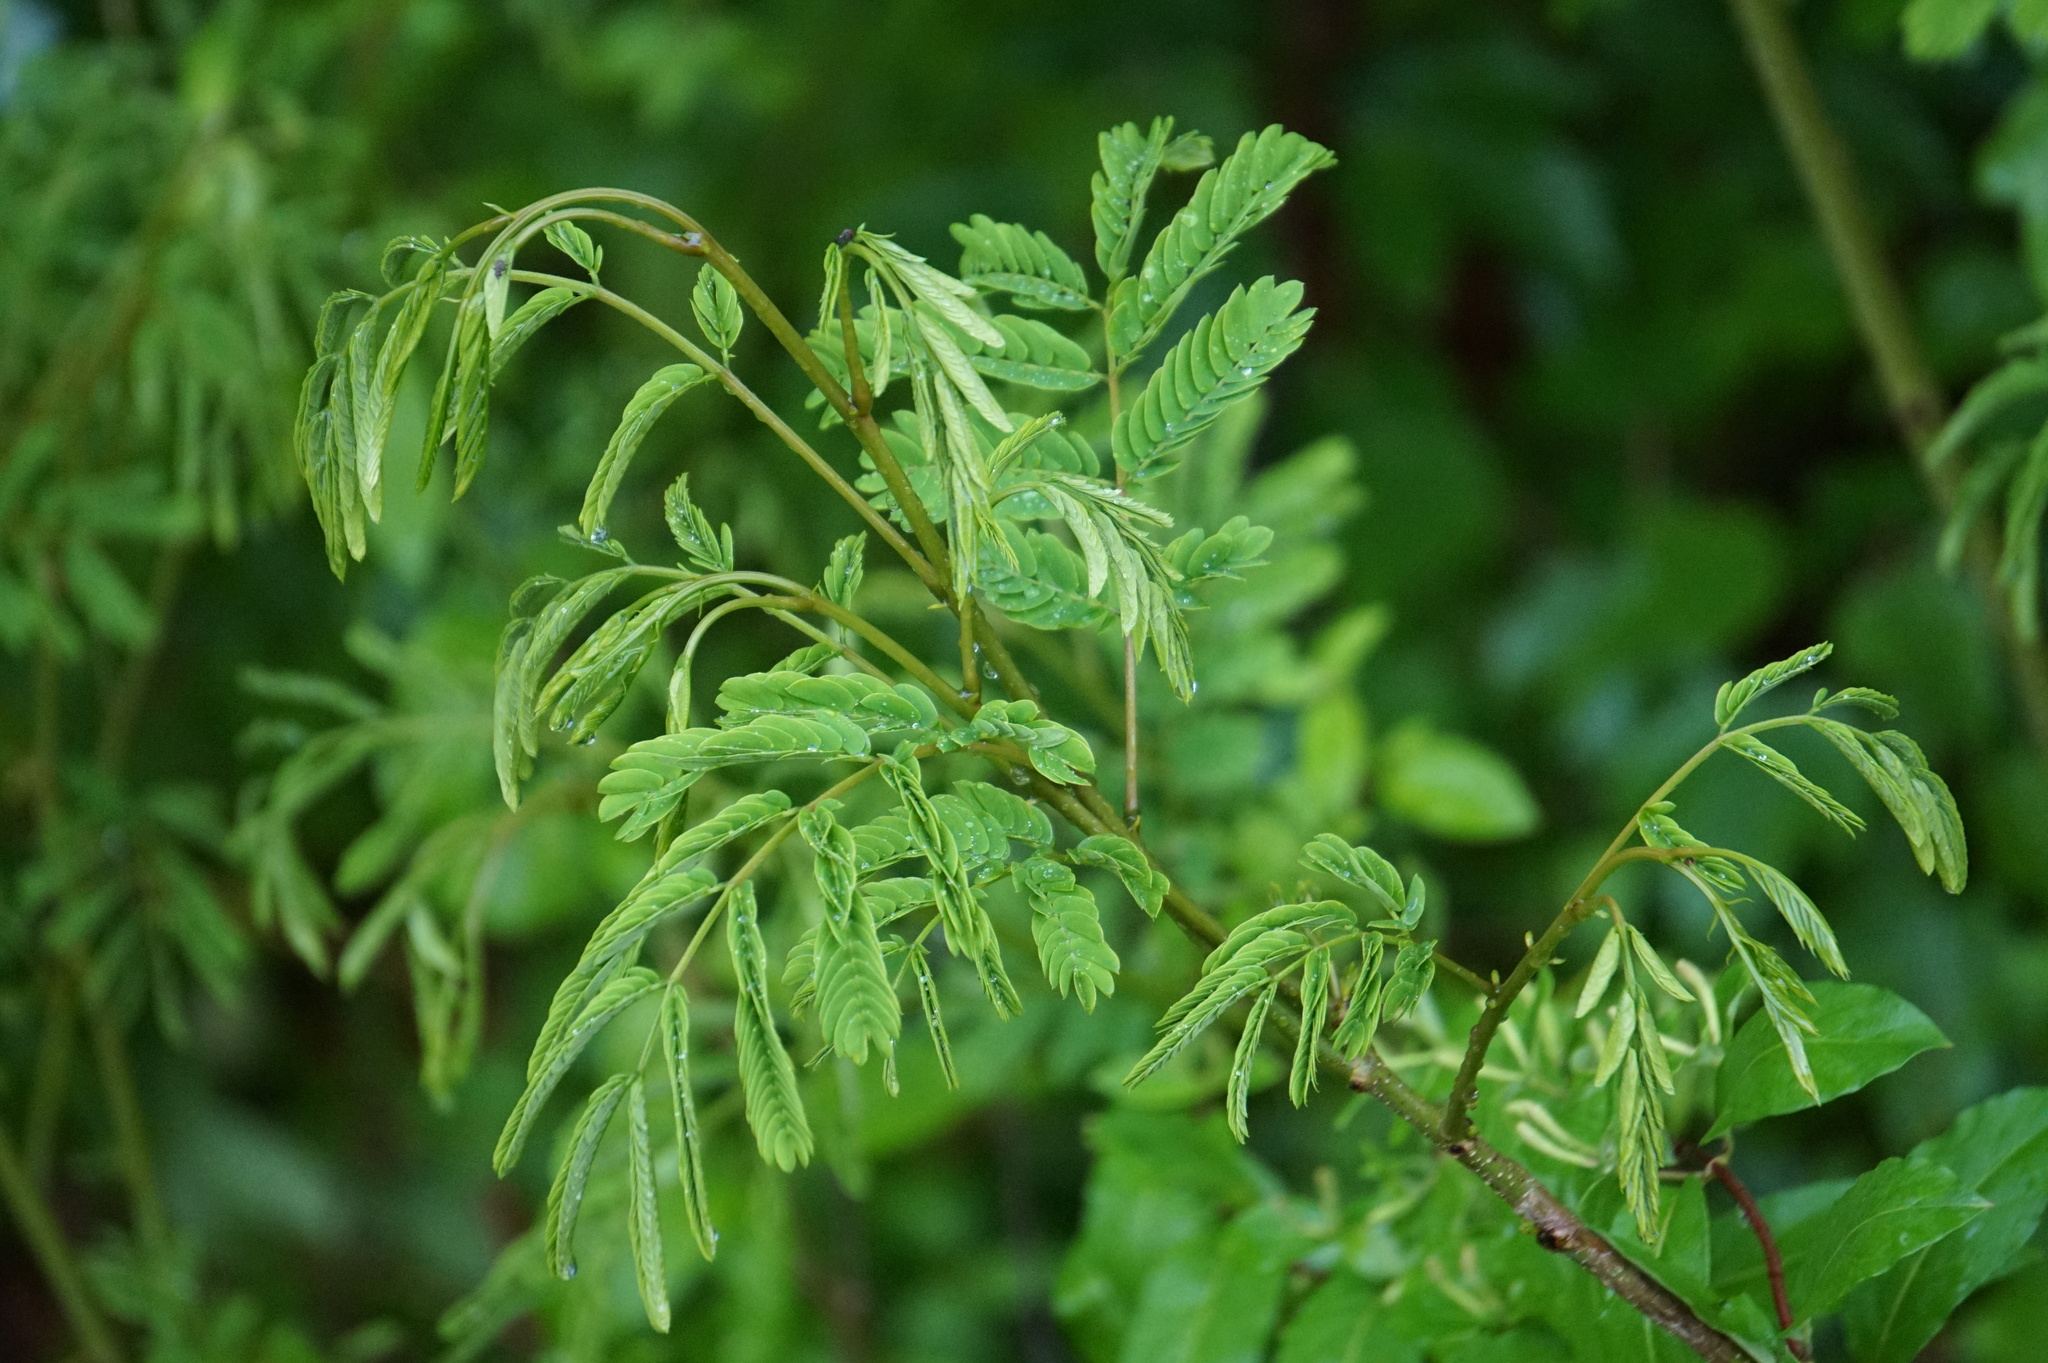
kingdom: Plantae
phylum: Tracheophyta
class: Magnoliopsida
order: Fabales
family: Fabaceae
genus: Albizia
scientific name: Albizia julibrissin
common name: Silktree
